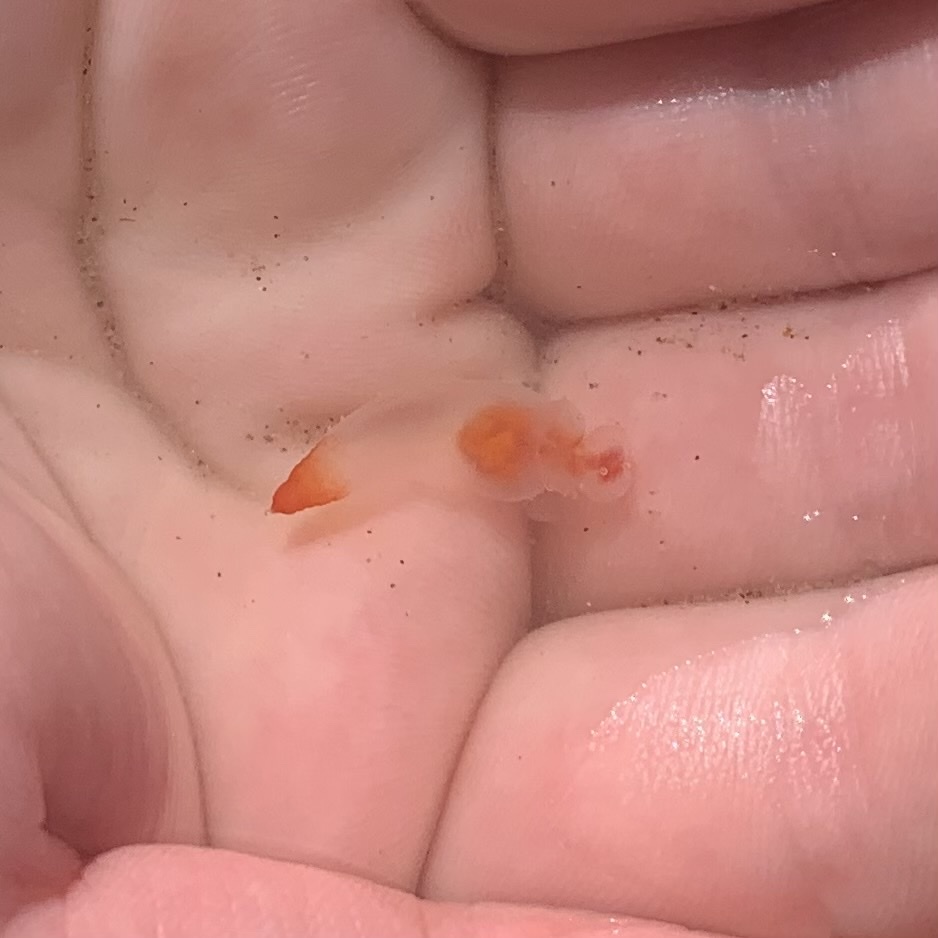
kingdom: Animalia
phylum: Mollusca
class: Gastropoda
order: Pteropoda
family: Clionidae
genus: Clione
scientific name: Clione limacina
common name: Common clione
